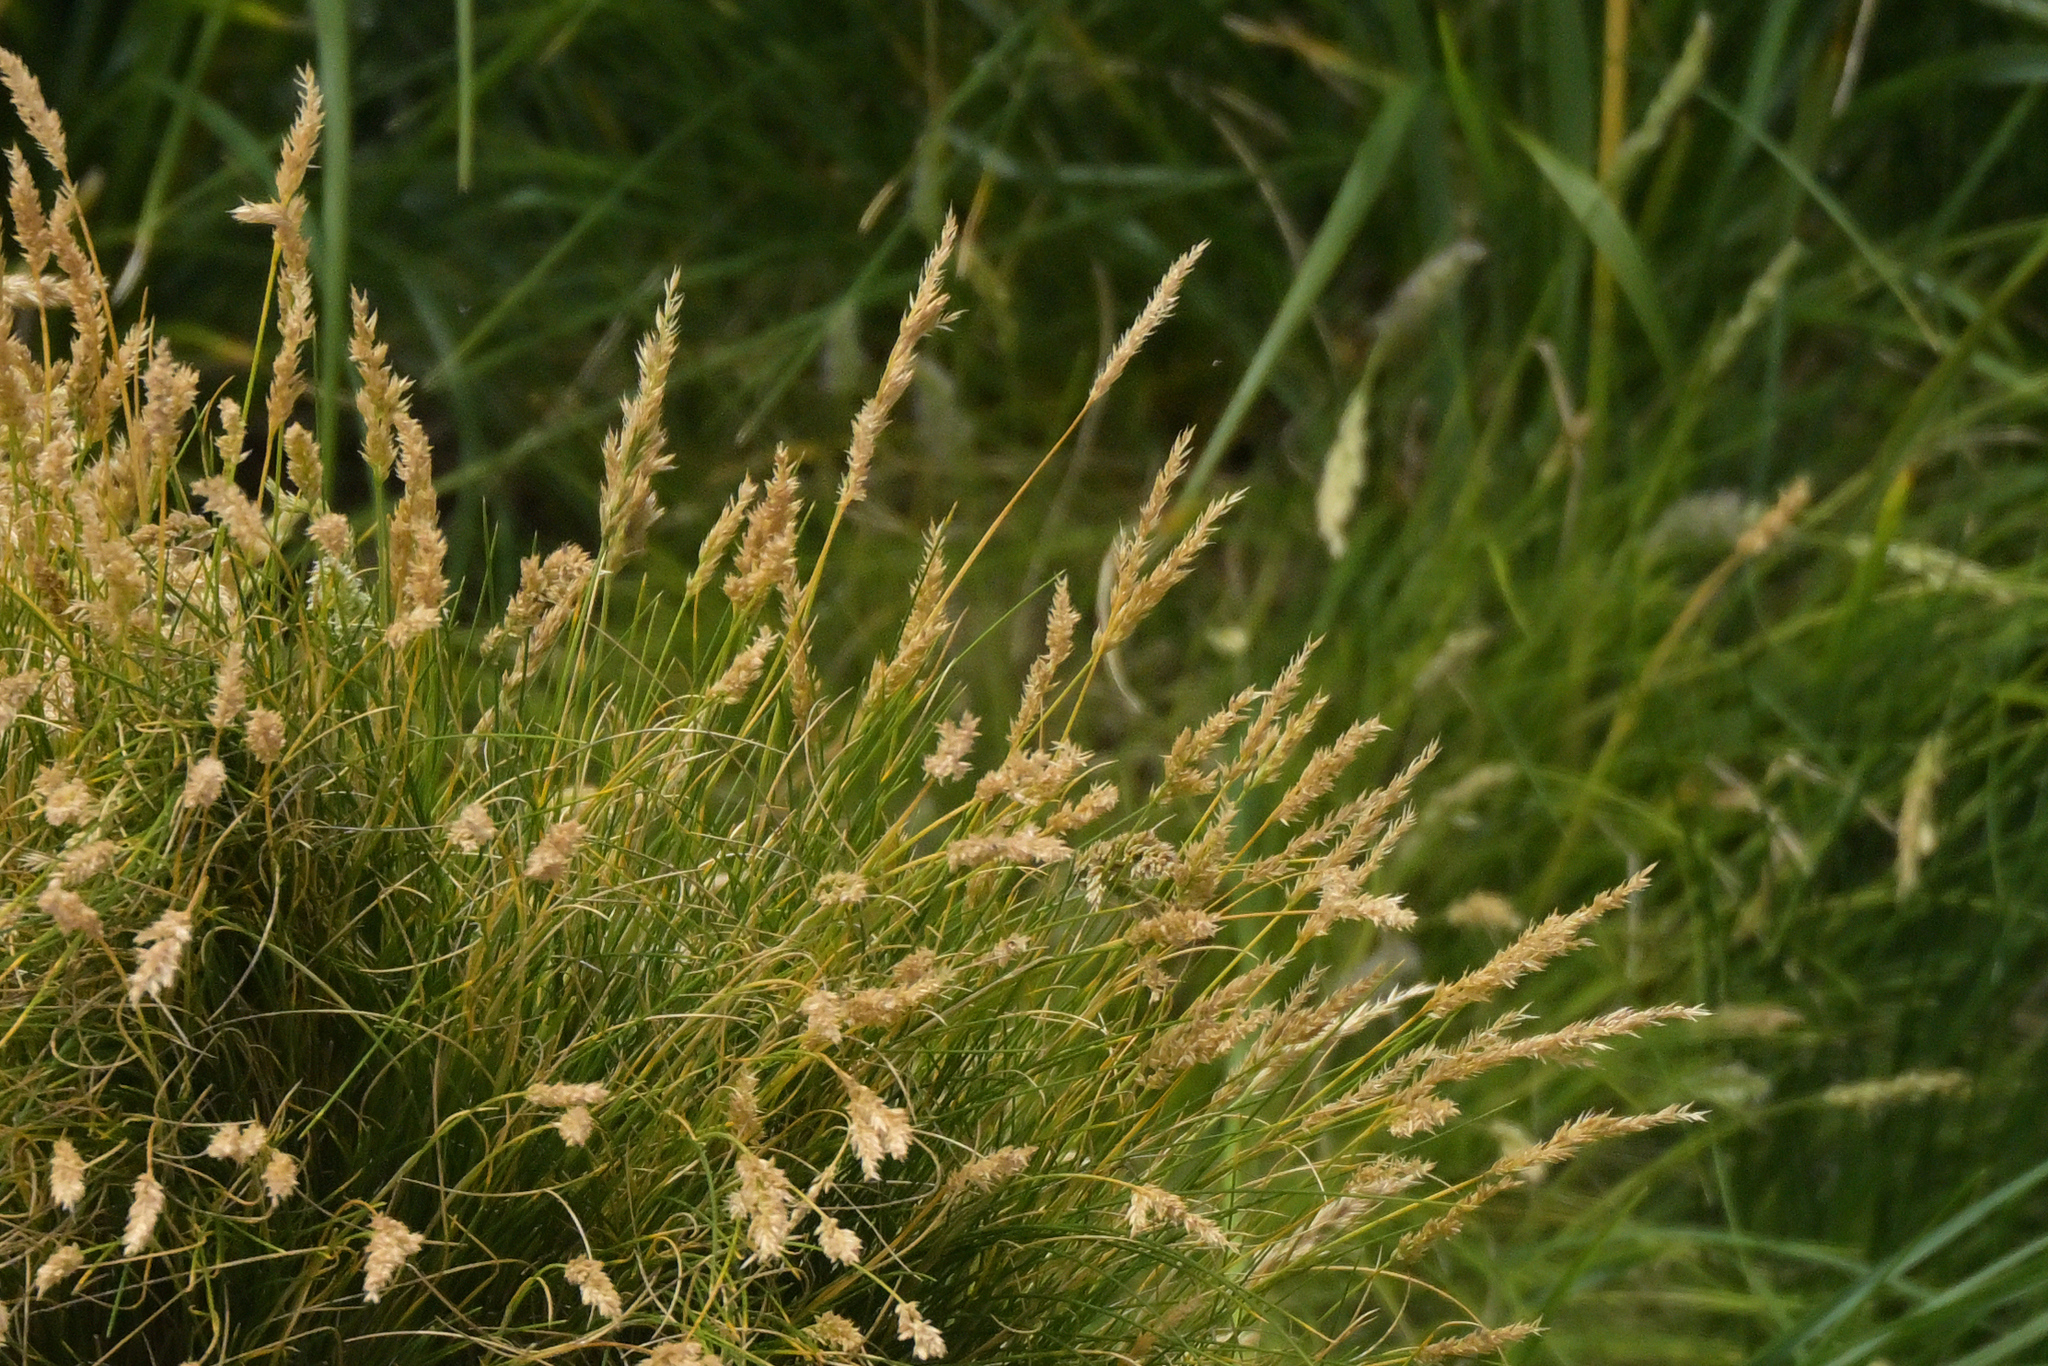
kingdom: Plantae
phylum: Tracheophyta
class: Liliopsida
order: Poales
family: Poaceae
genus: Poa
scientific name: Poa astonii
